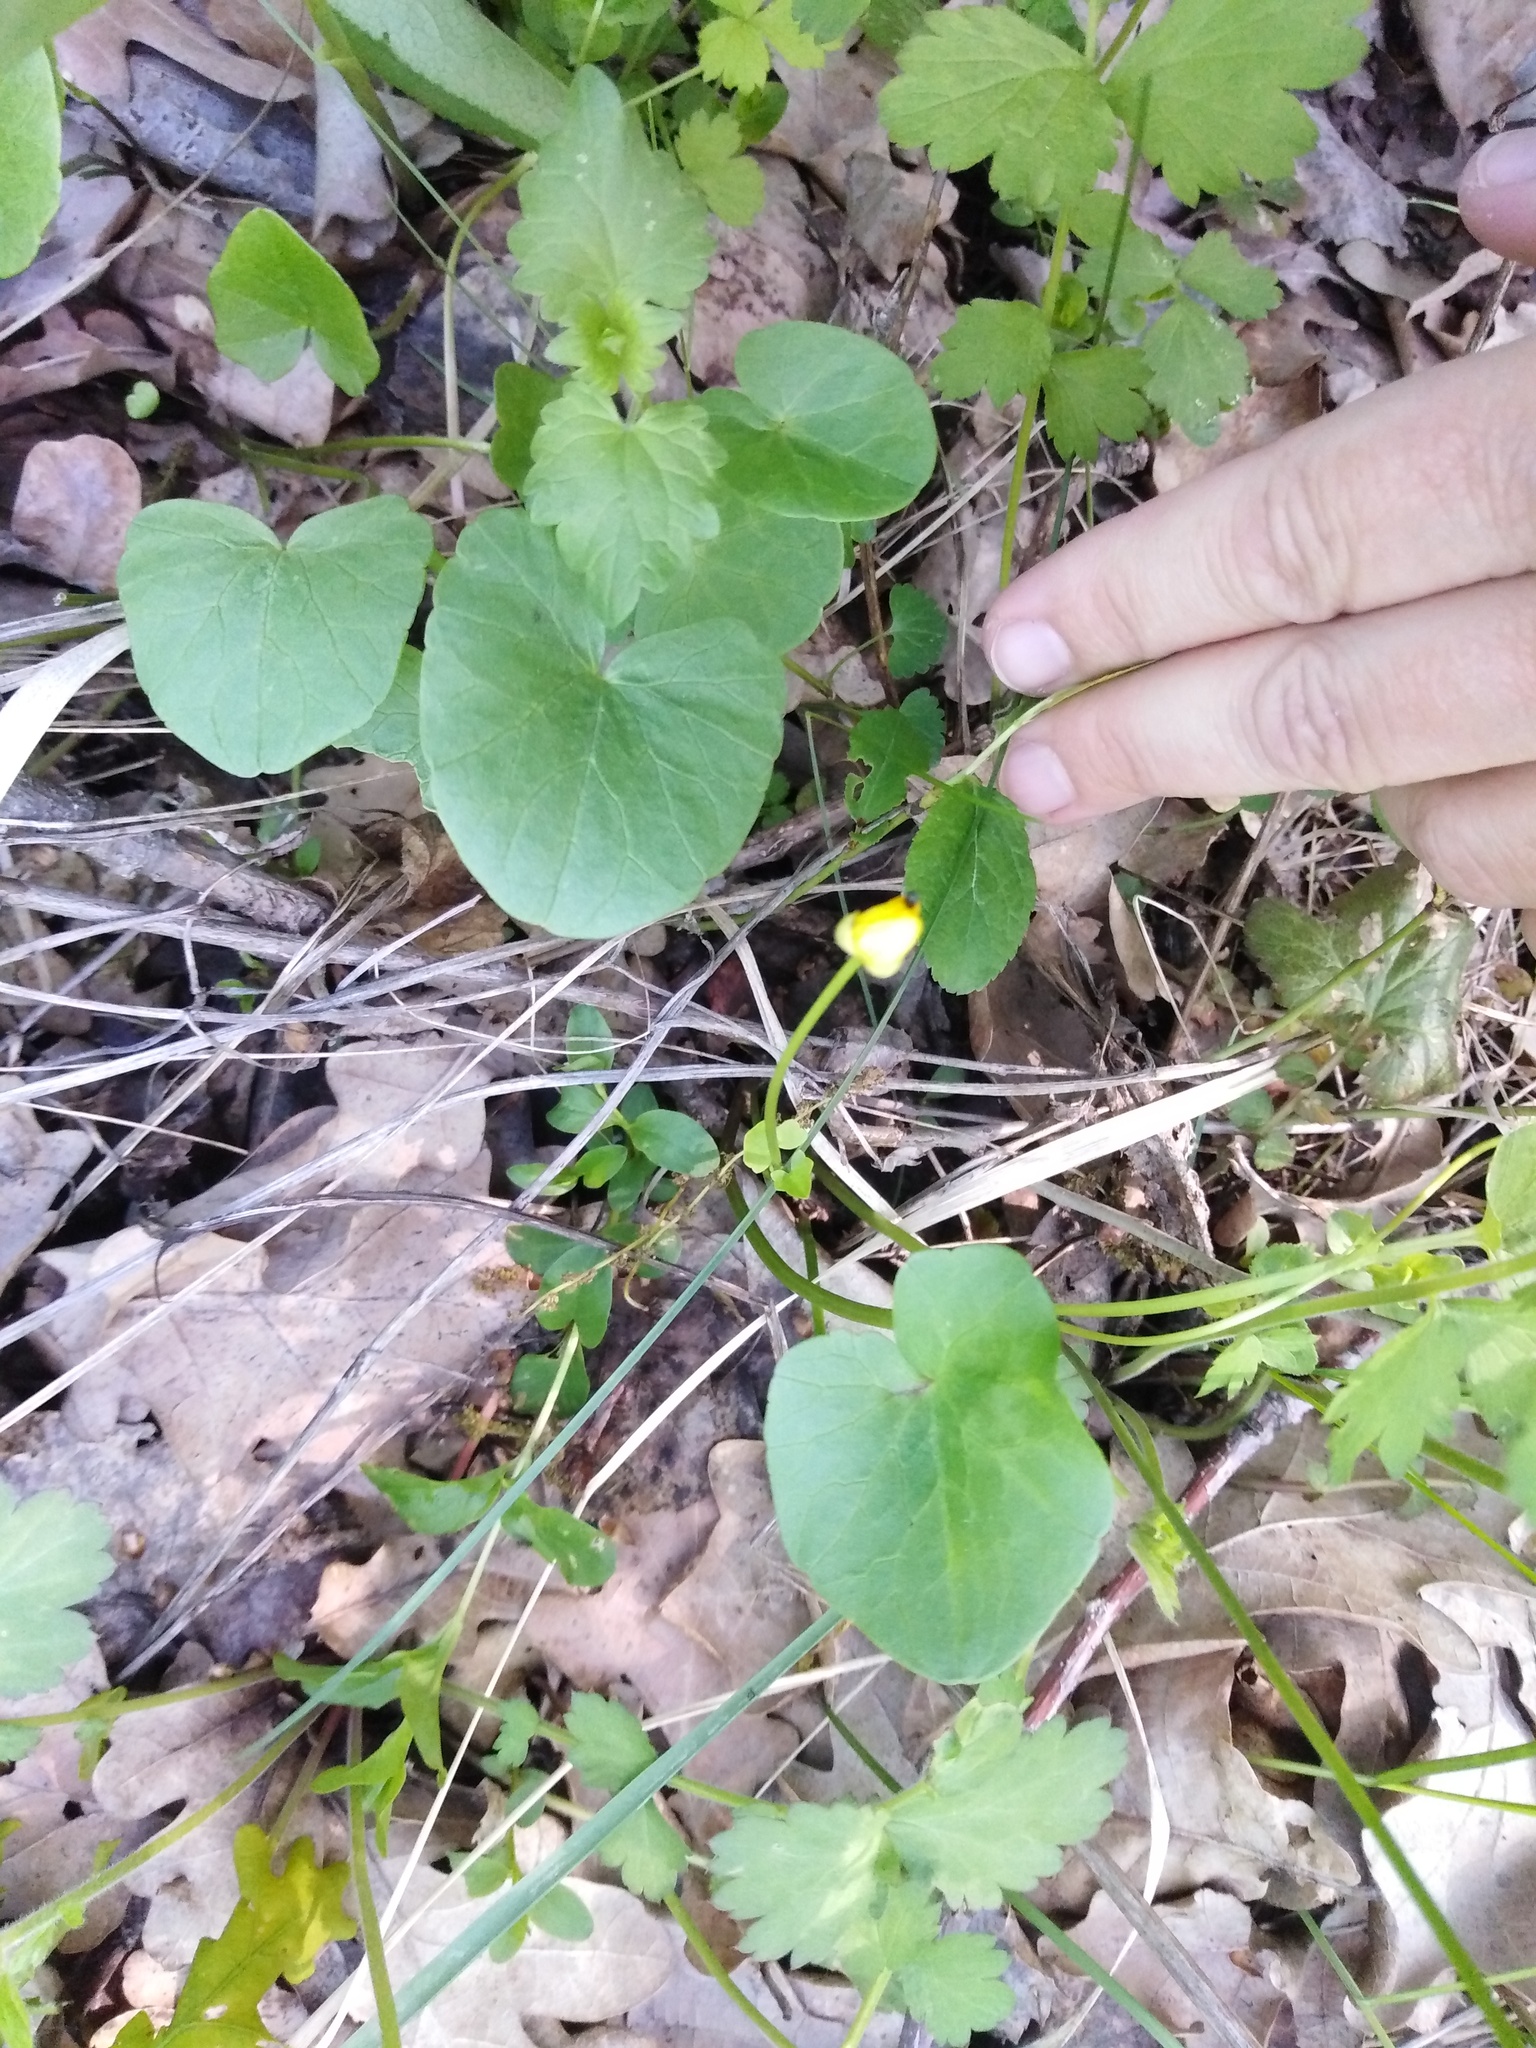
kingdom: Plantae
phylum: Tracheophyta
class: Magnoliopsida
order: Ranunculales
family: Ranunculaceae
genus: Ficaria
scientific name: Ficaria
